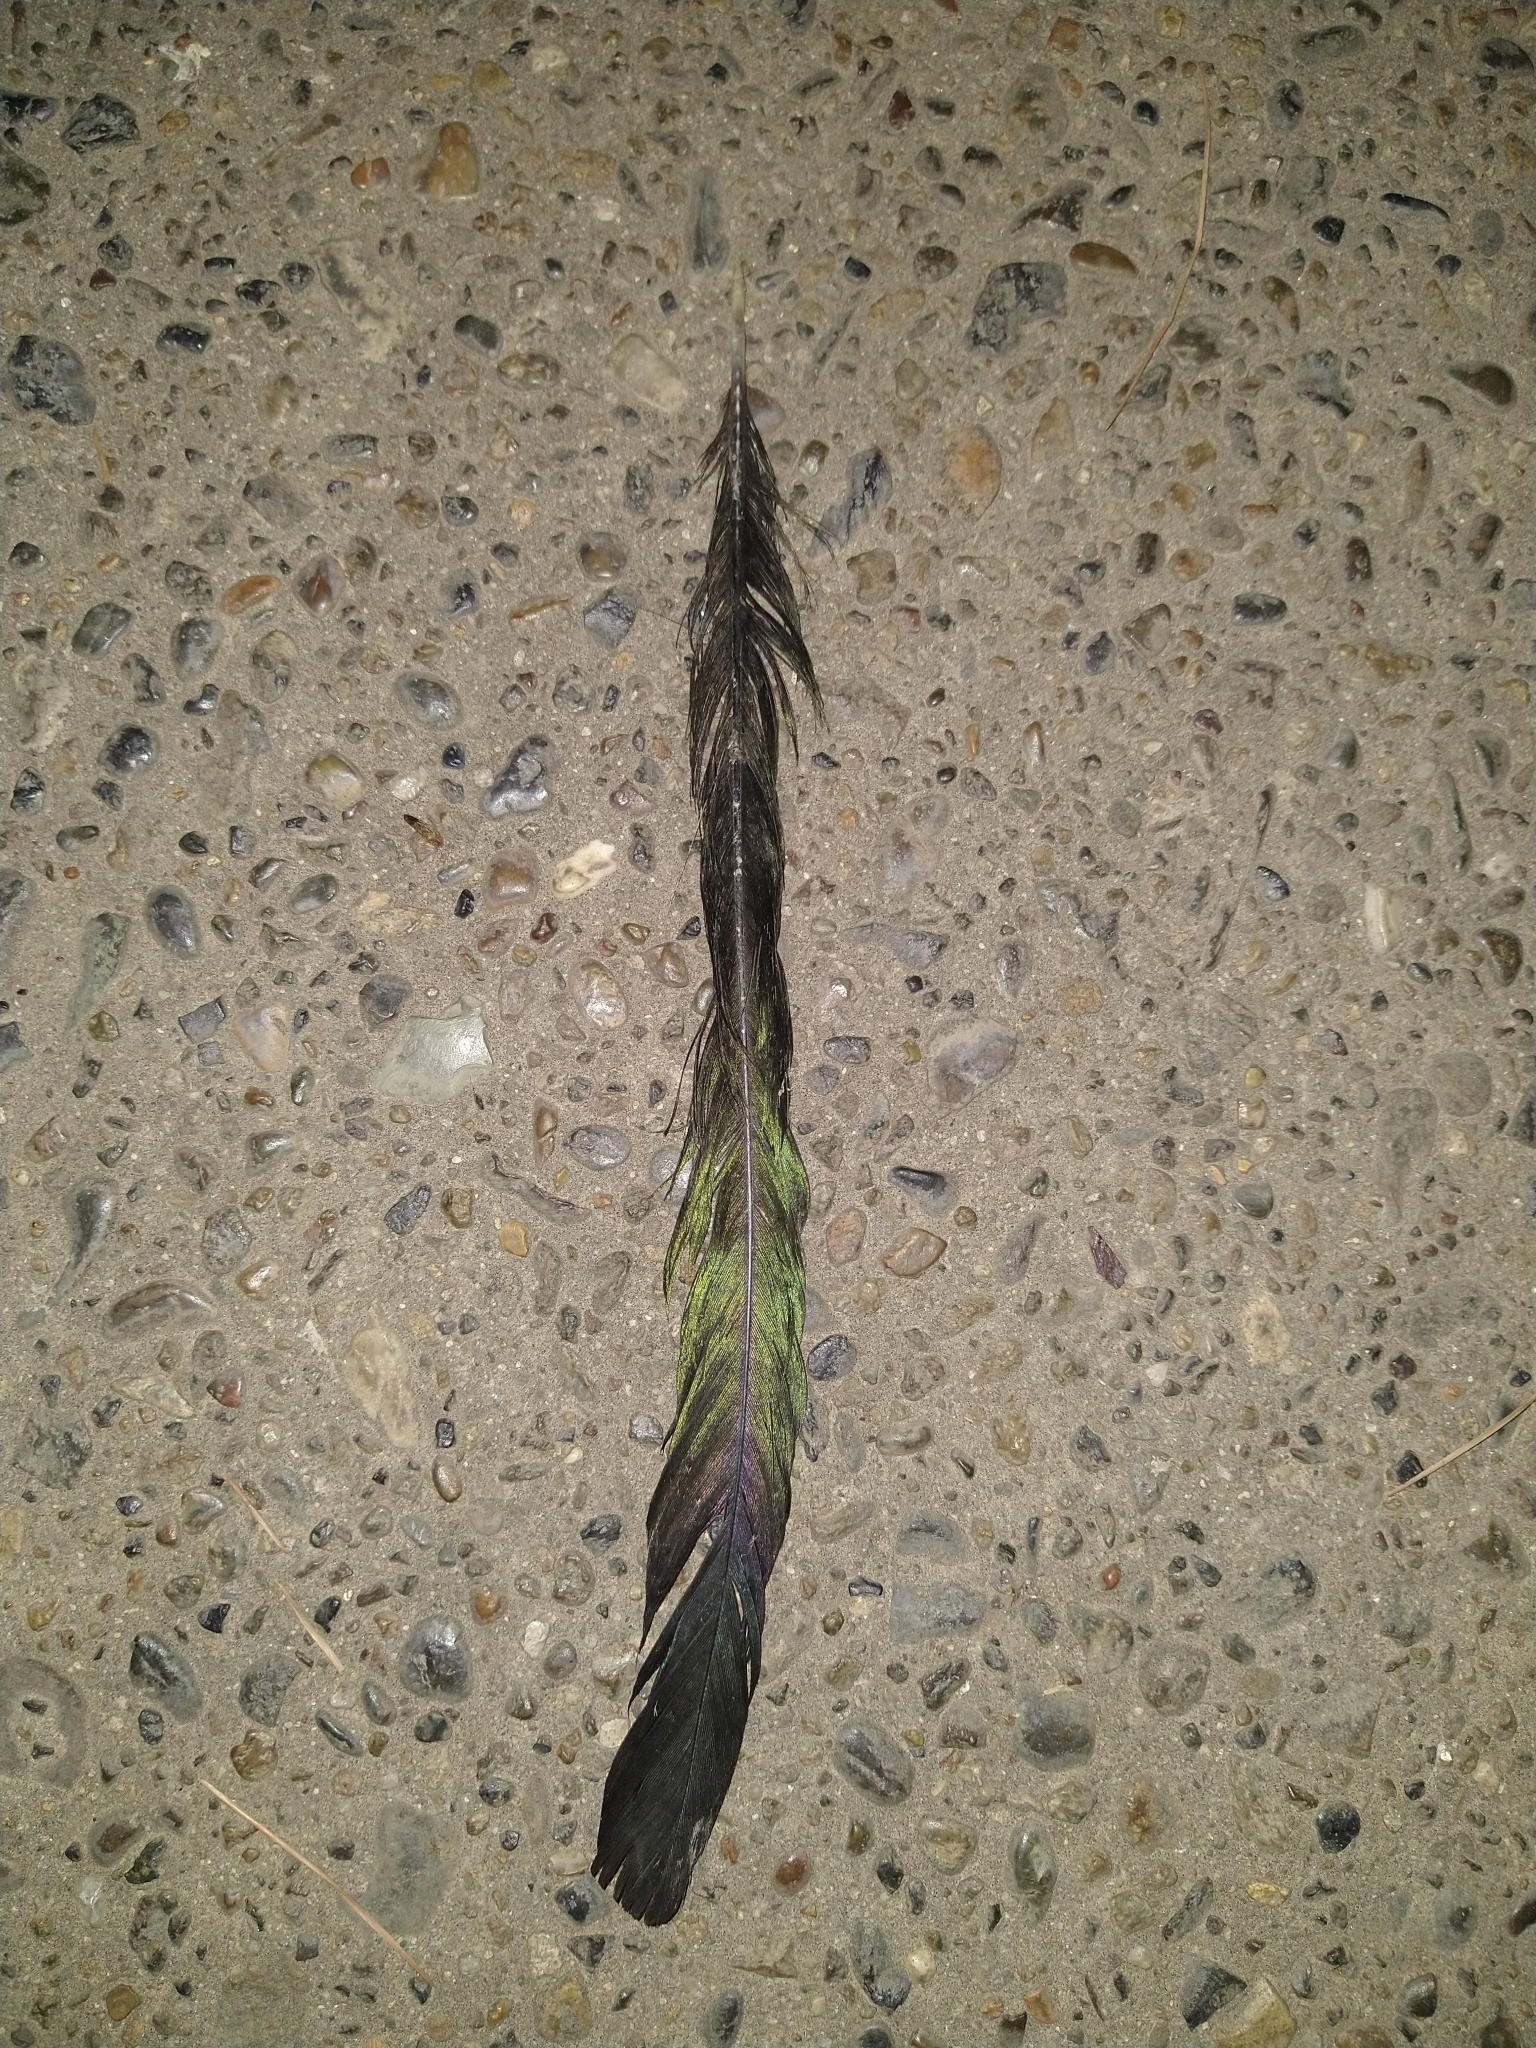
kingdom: Animalia
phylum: Chordata
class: Aves
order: Passeriformes
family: Corvidae
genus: Pica
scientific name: Pica nuttalli
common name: Yellow-billed magpie
